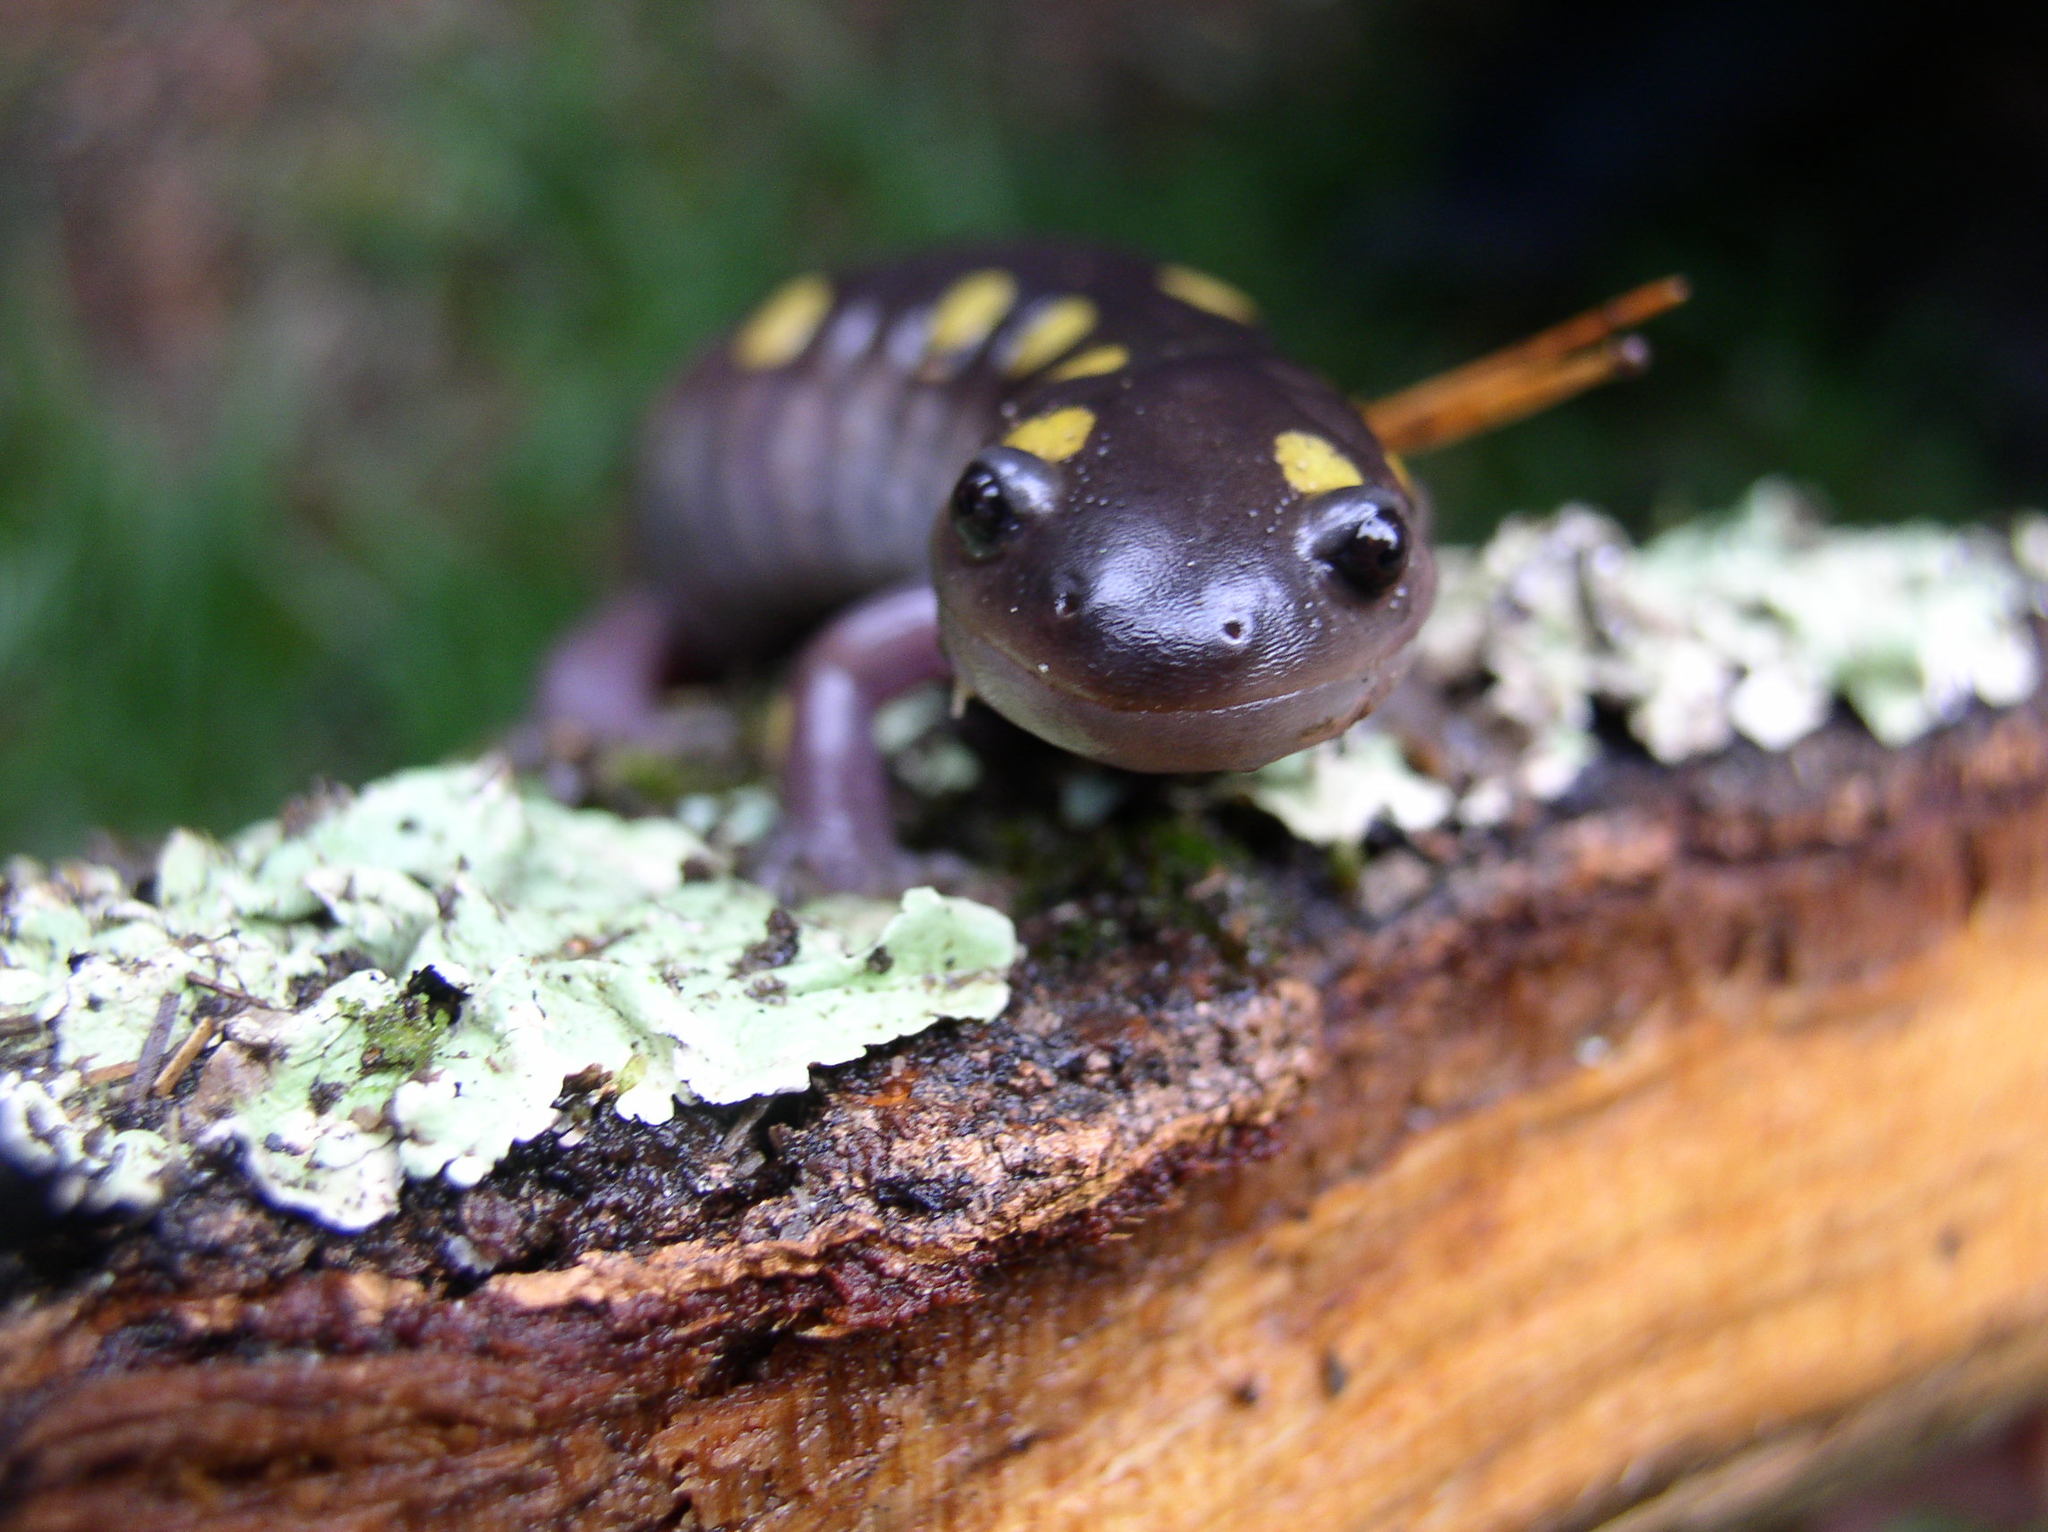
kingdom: Animalia
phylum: Chordata
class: Amphibia
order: Caudata
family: Ambystomatidae
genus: Ambystoma
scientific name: Ambystoma maculatum
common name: Spotted salamander
